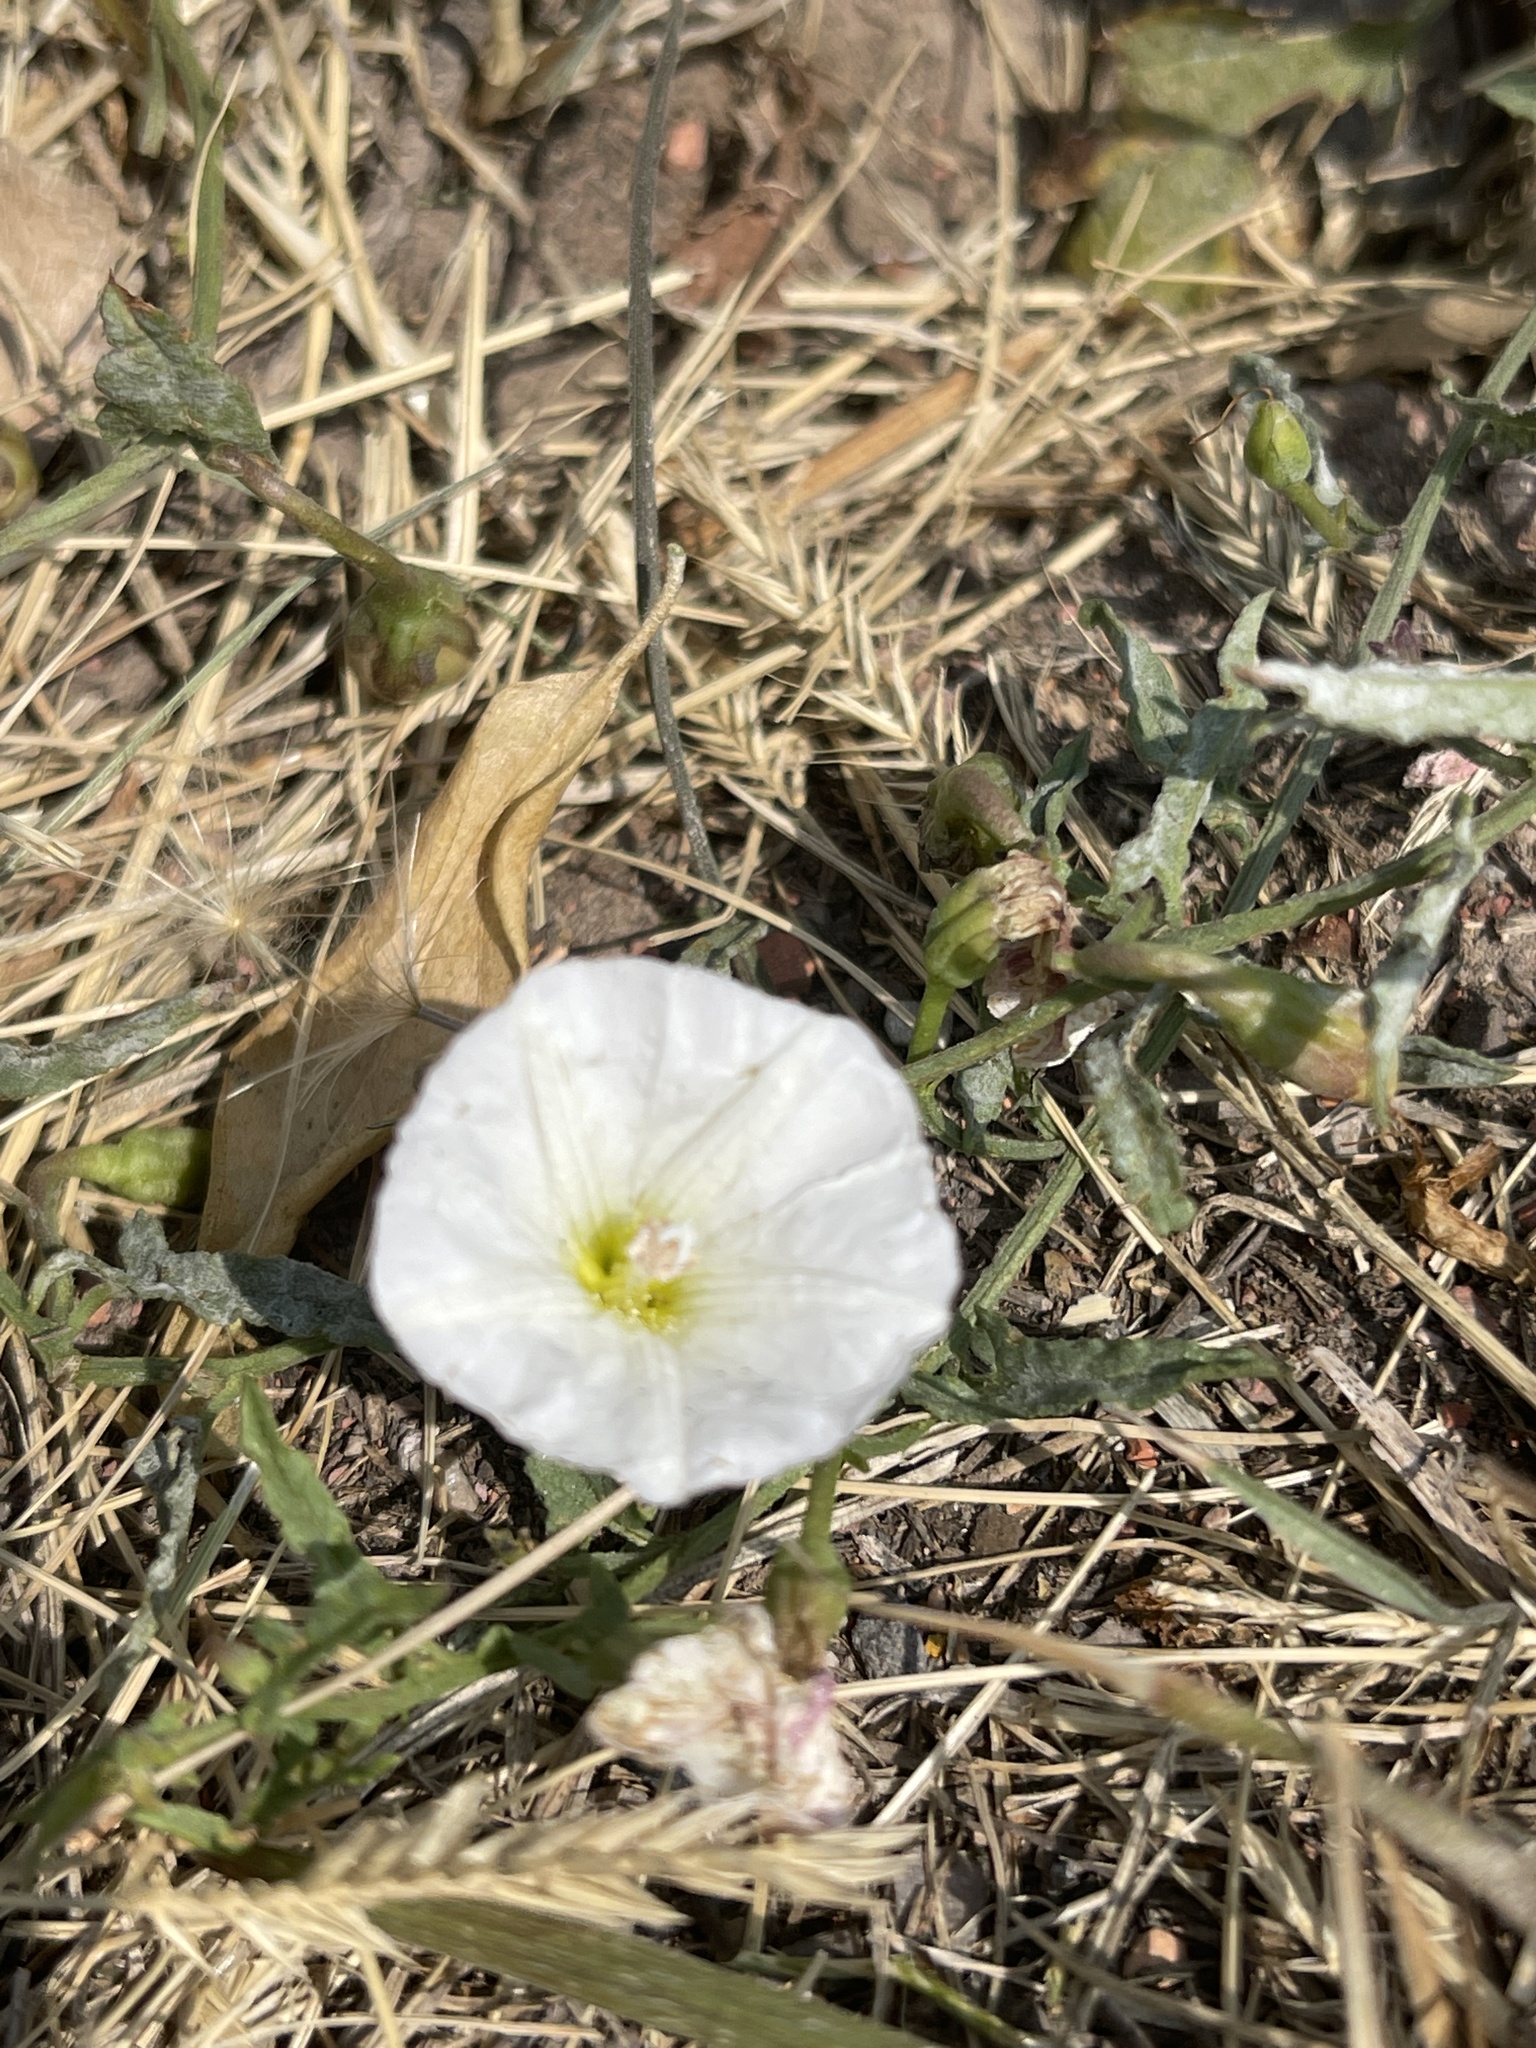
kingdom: Plantae
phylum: Tracheophyta
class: Magnoliopsida
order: Solanales
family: Convolvulaceae
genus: Convolvulus
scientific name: Convolvulus arvensis
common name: Field bindweed
